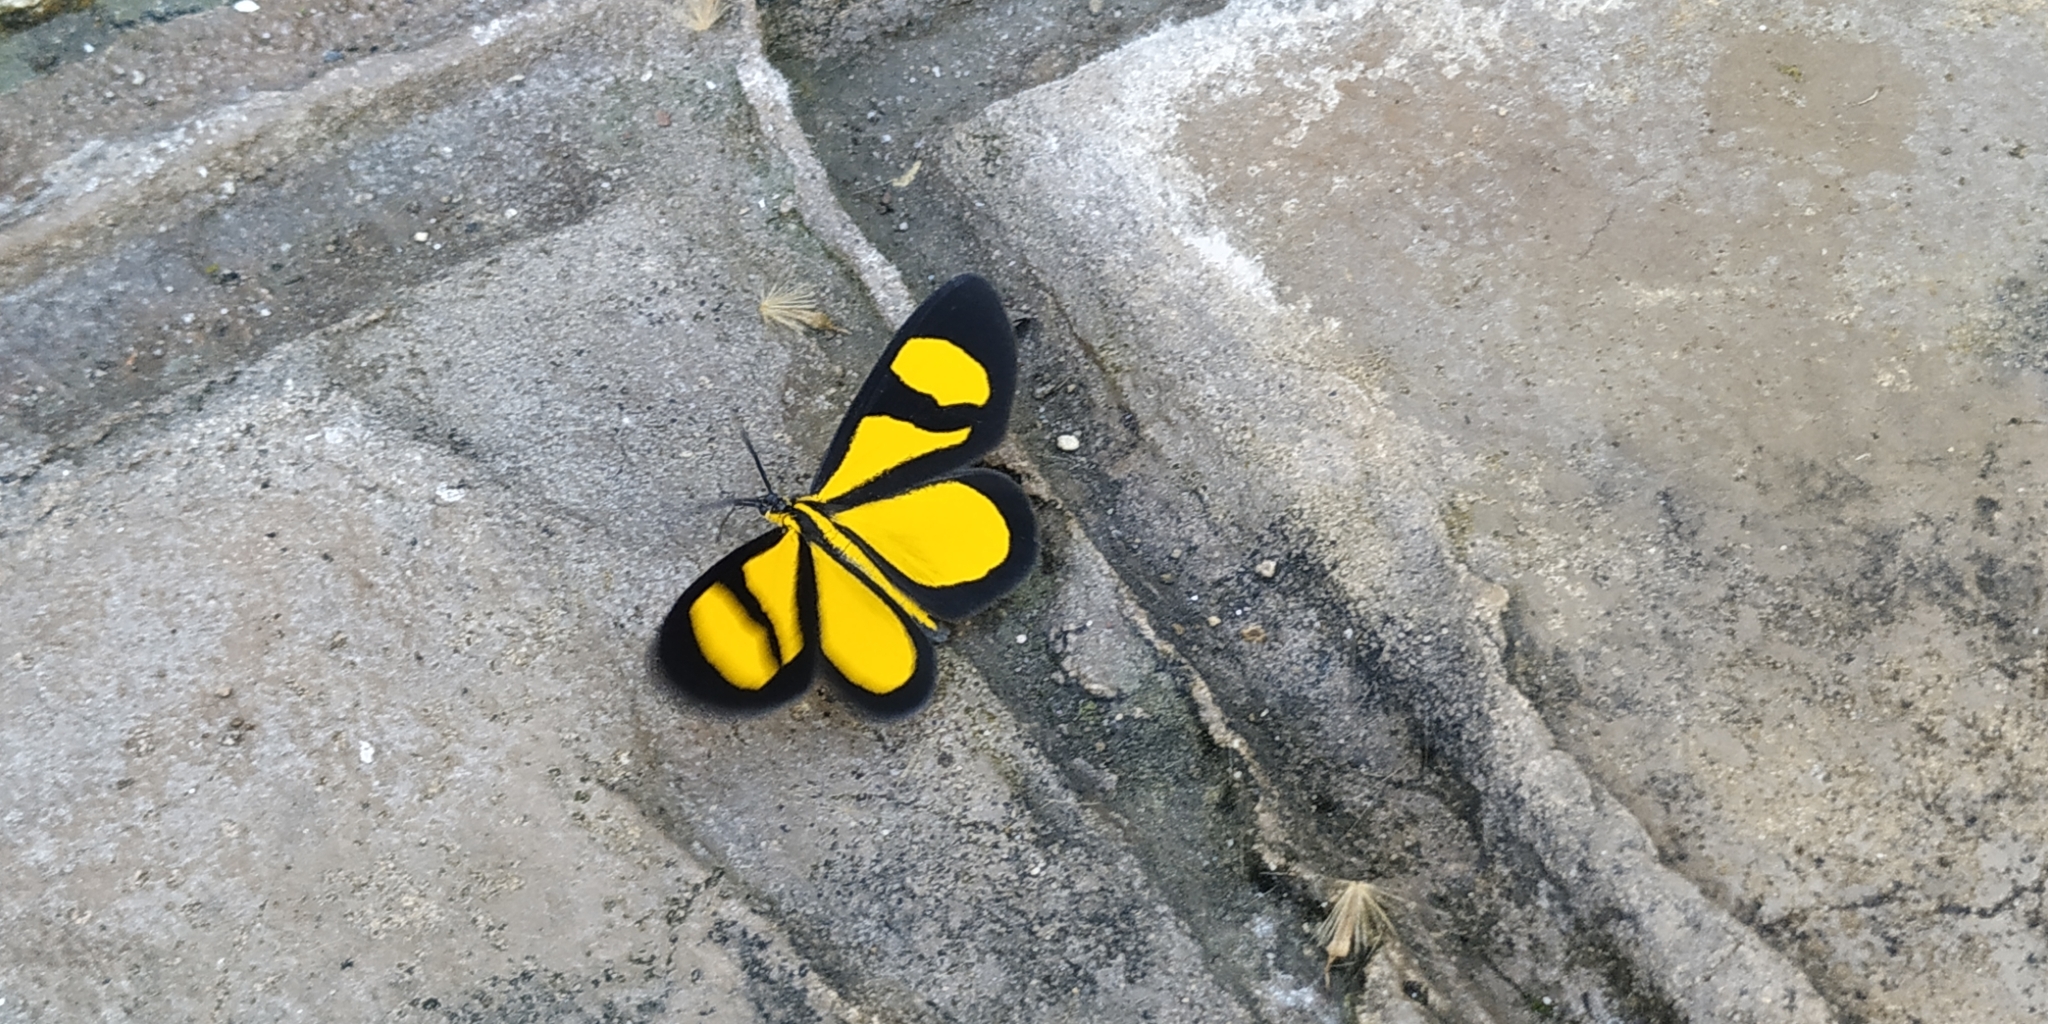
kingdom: Animalia
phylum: Arthropoda
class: Insecta
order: Lepidoptera
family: Geometridae
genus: Smicropus
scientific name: Smicropus laeta
